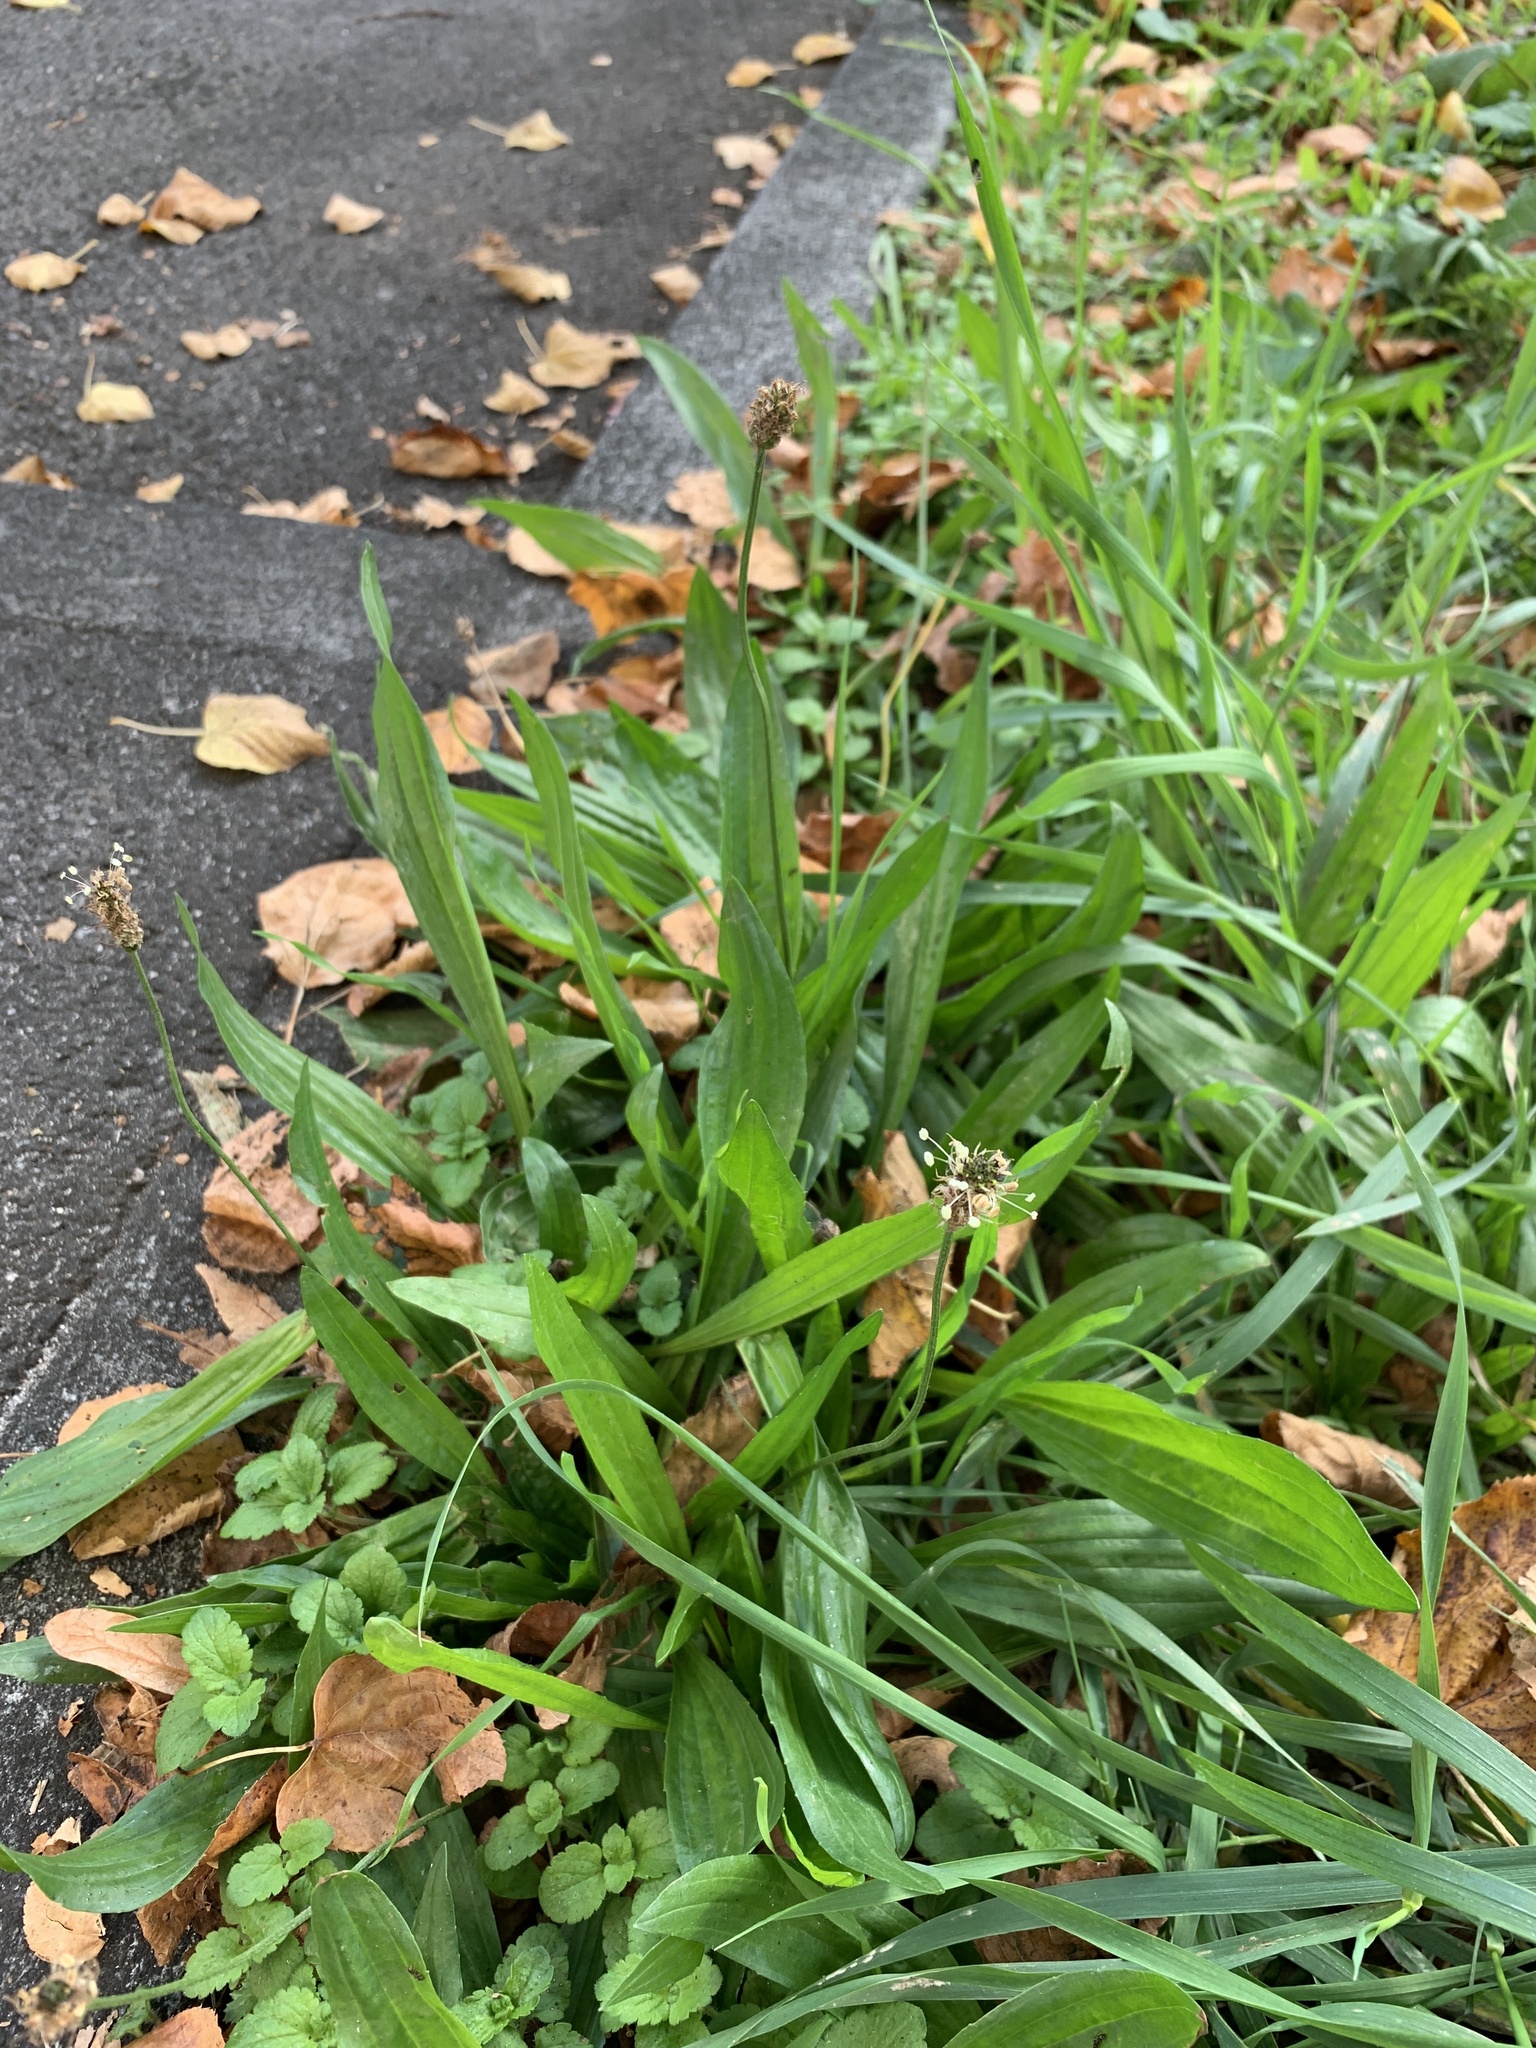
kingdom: Plantae
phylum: Tracheophyta
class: Magnoliopsida
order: Lamiales
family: Plantaginaceae
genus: Plantago
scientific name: Plantago lanceolata
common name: Ribwort plantain
